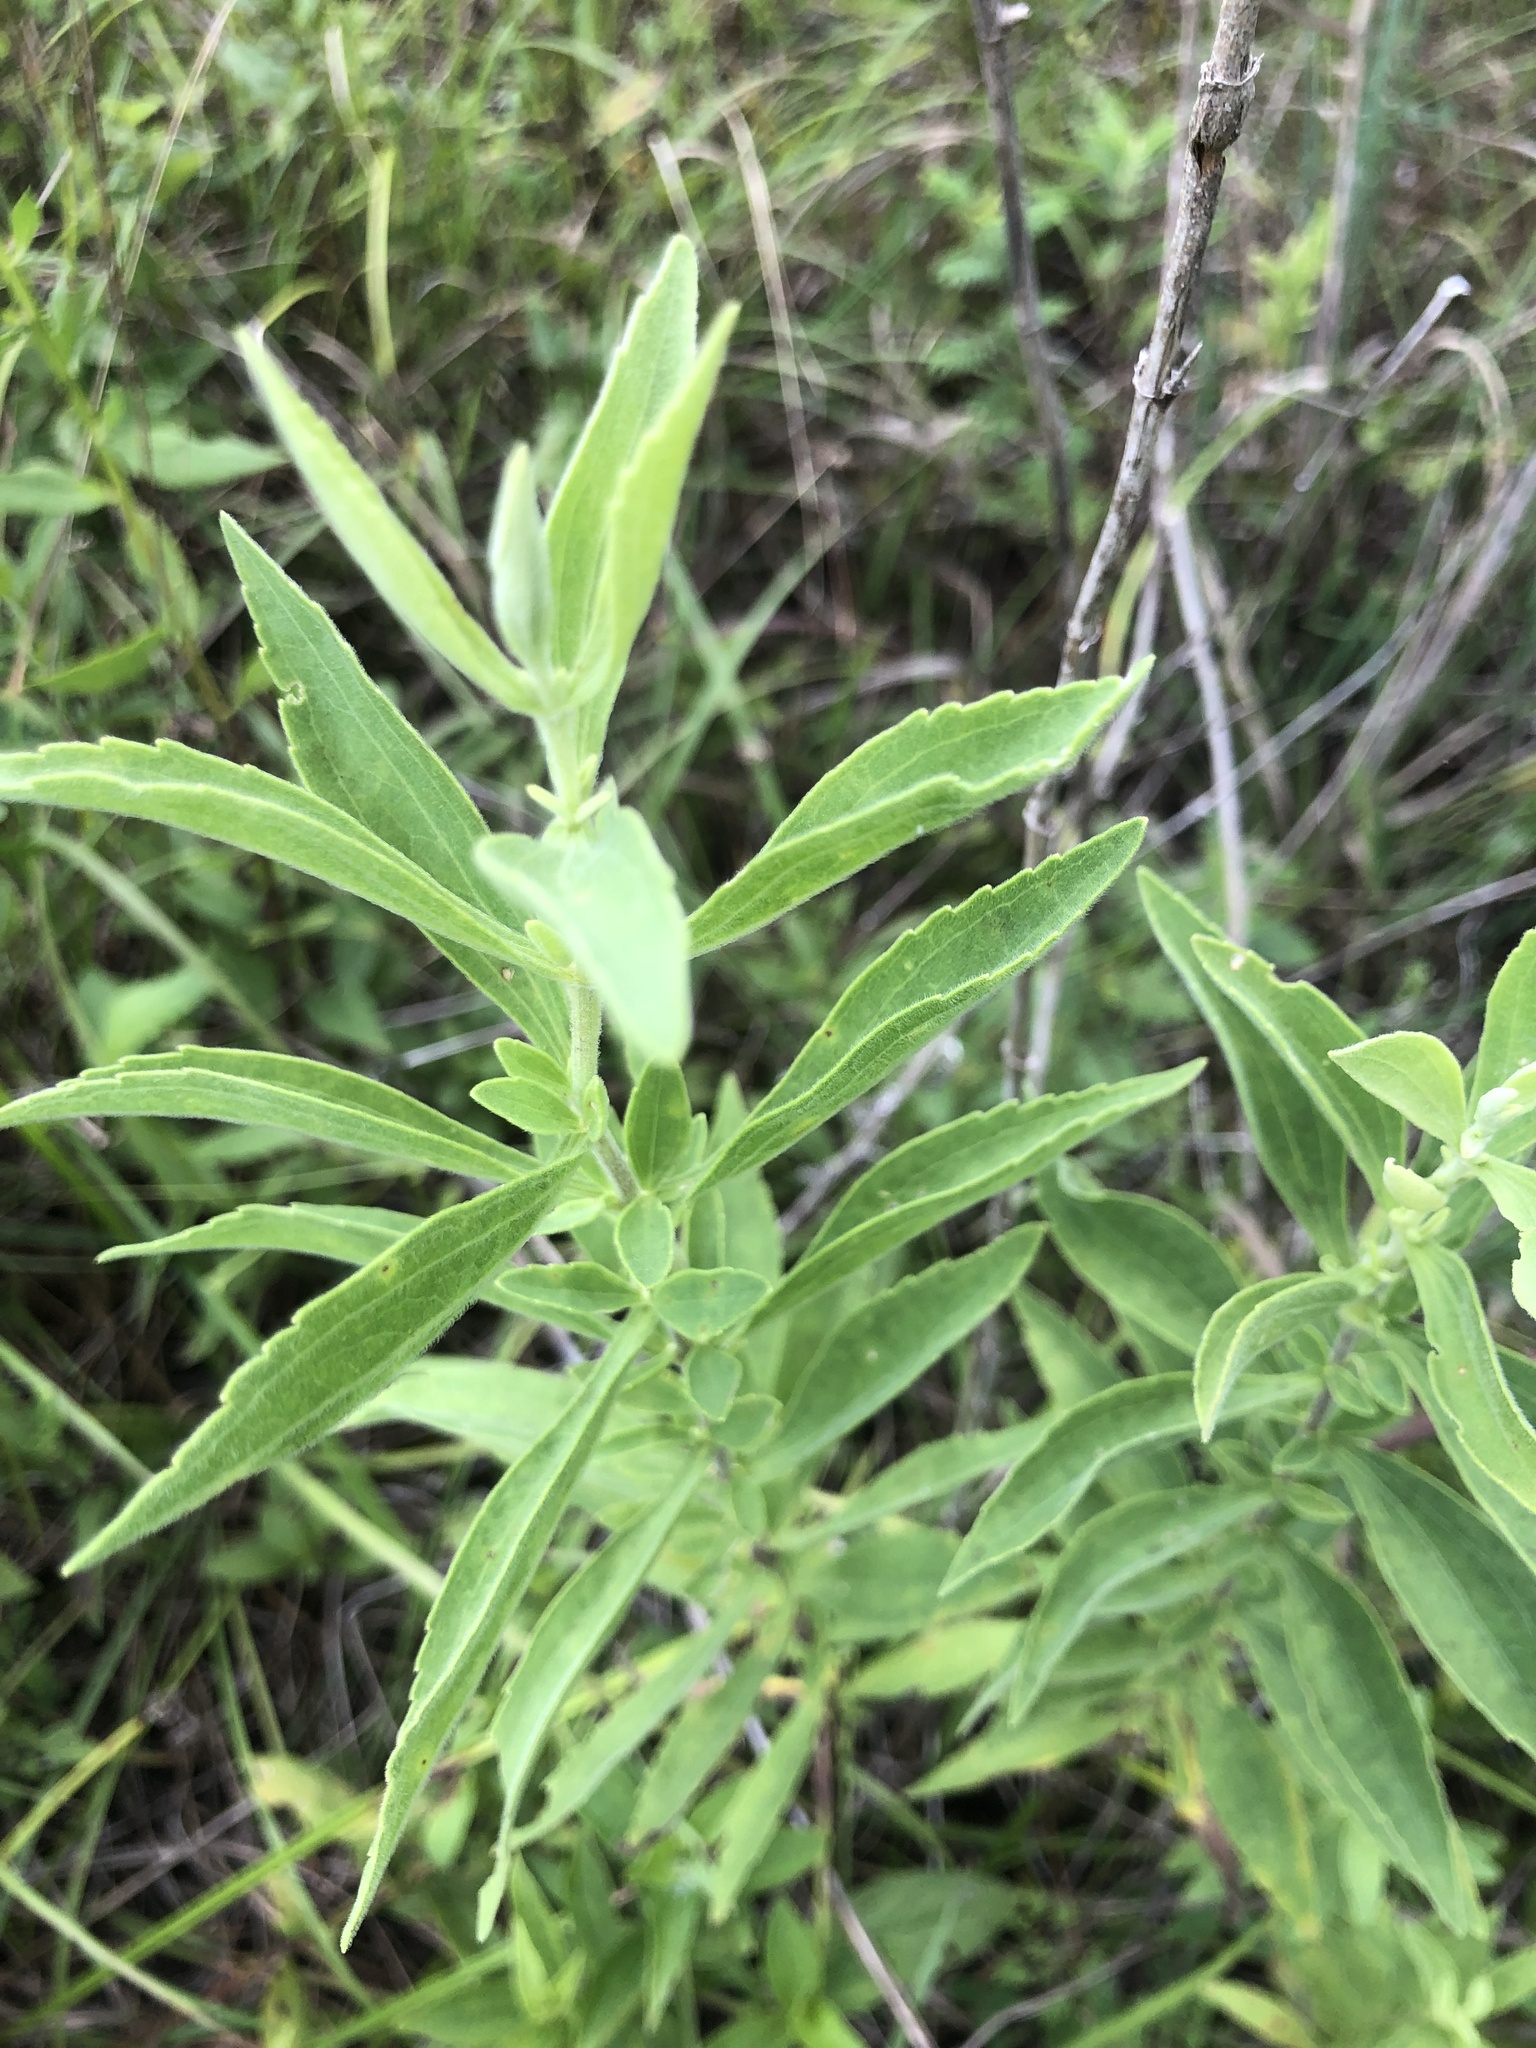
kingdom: Plantae
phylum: Tracheophyta
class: Magnoliopsida
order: Asterales
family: Asteraceae
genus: Eupatorium
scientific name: Eupatorium altissimum
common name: Tall thoroughwort
